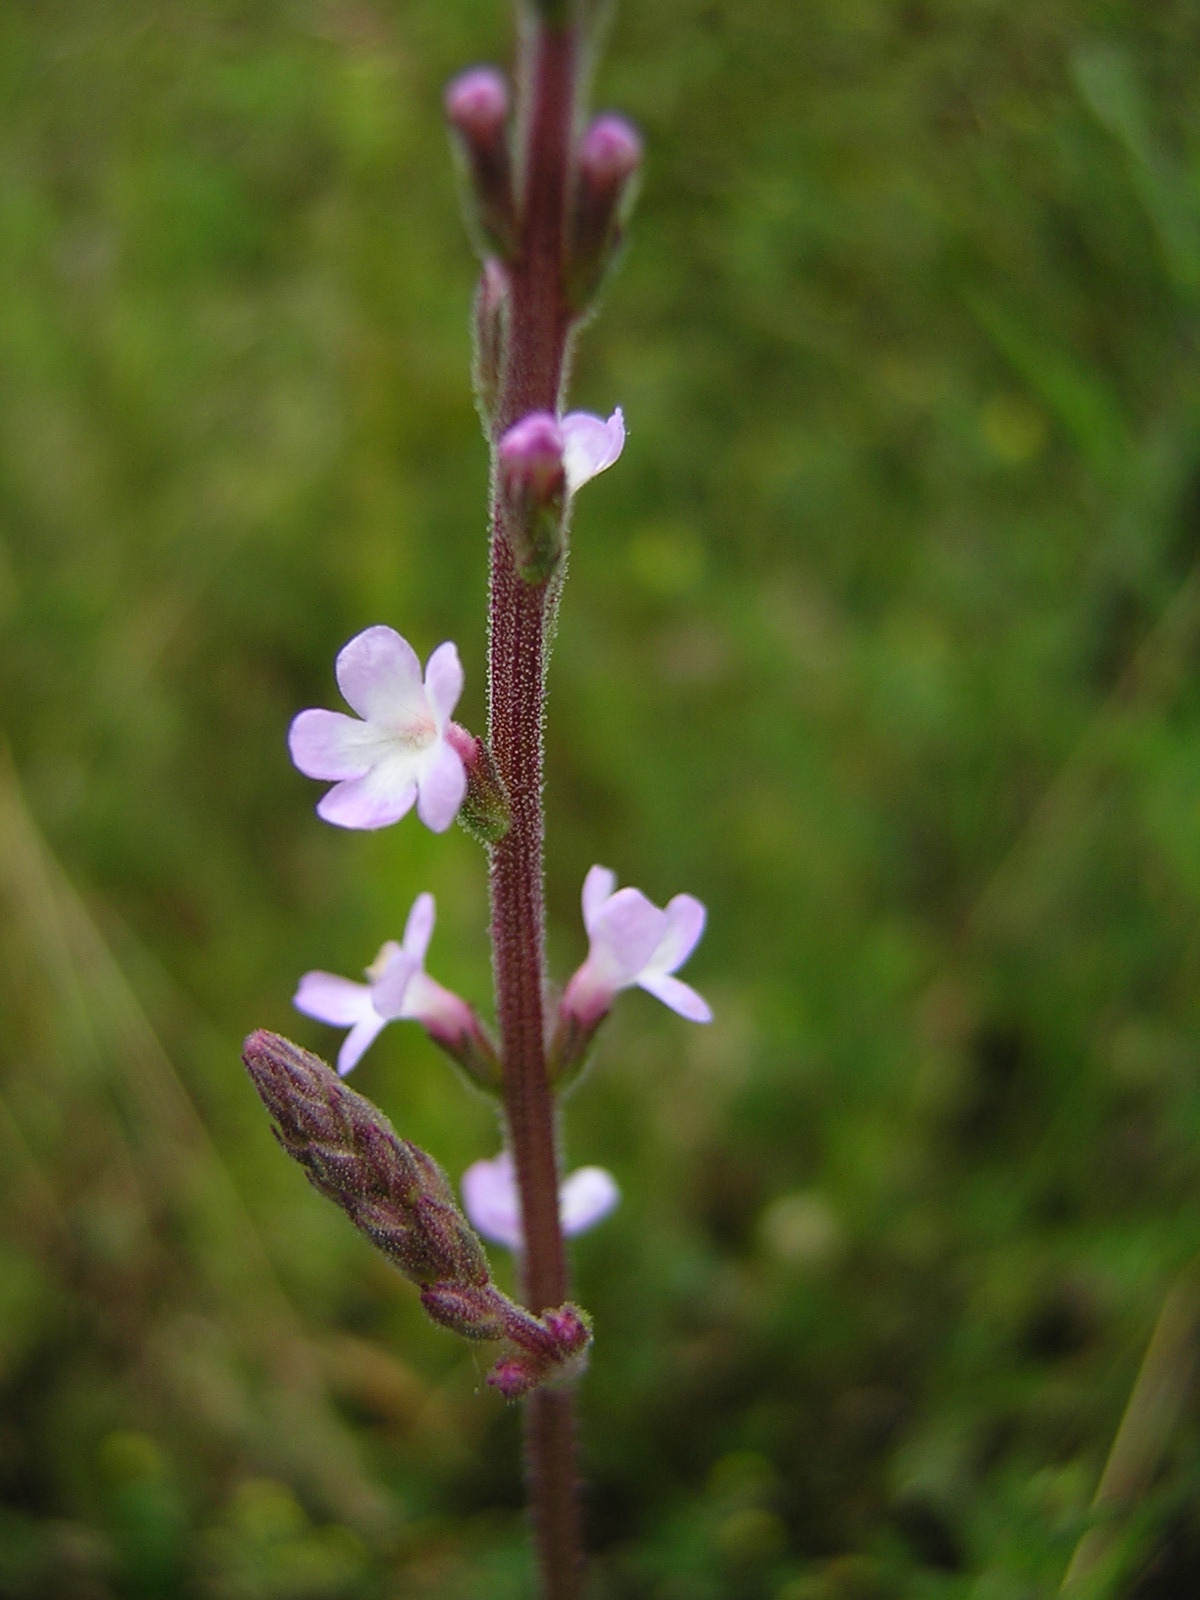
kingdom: Plantae
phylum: Tracheophyta
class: Magnoliopsida
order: Lamiales
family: Verbenaceae
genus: Verbena
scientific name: Verbena officinalis
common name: Vervain
